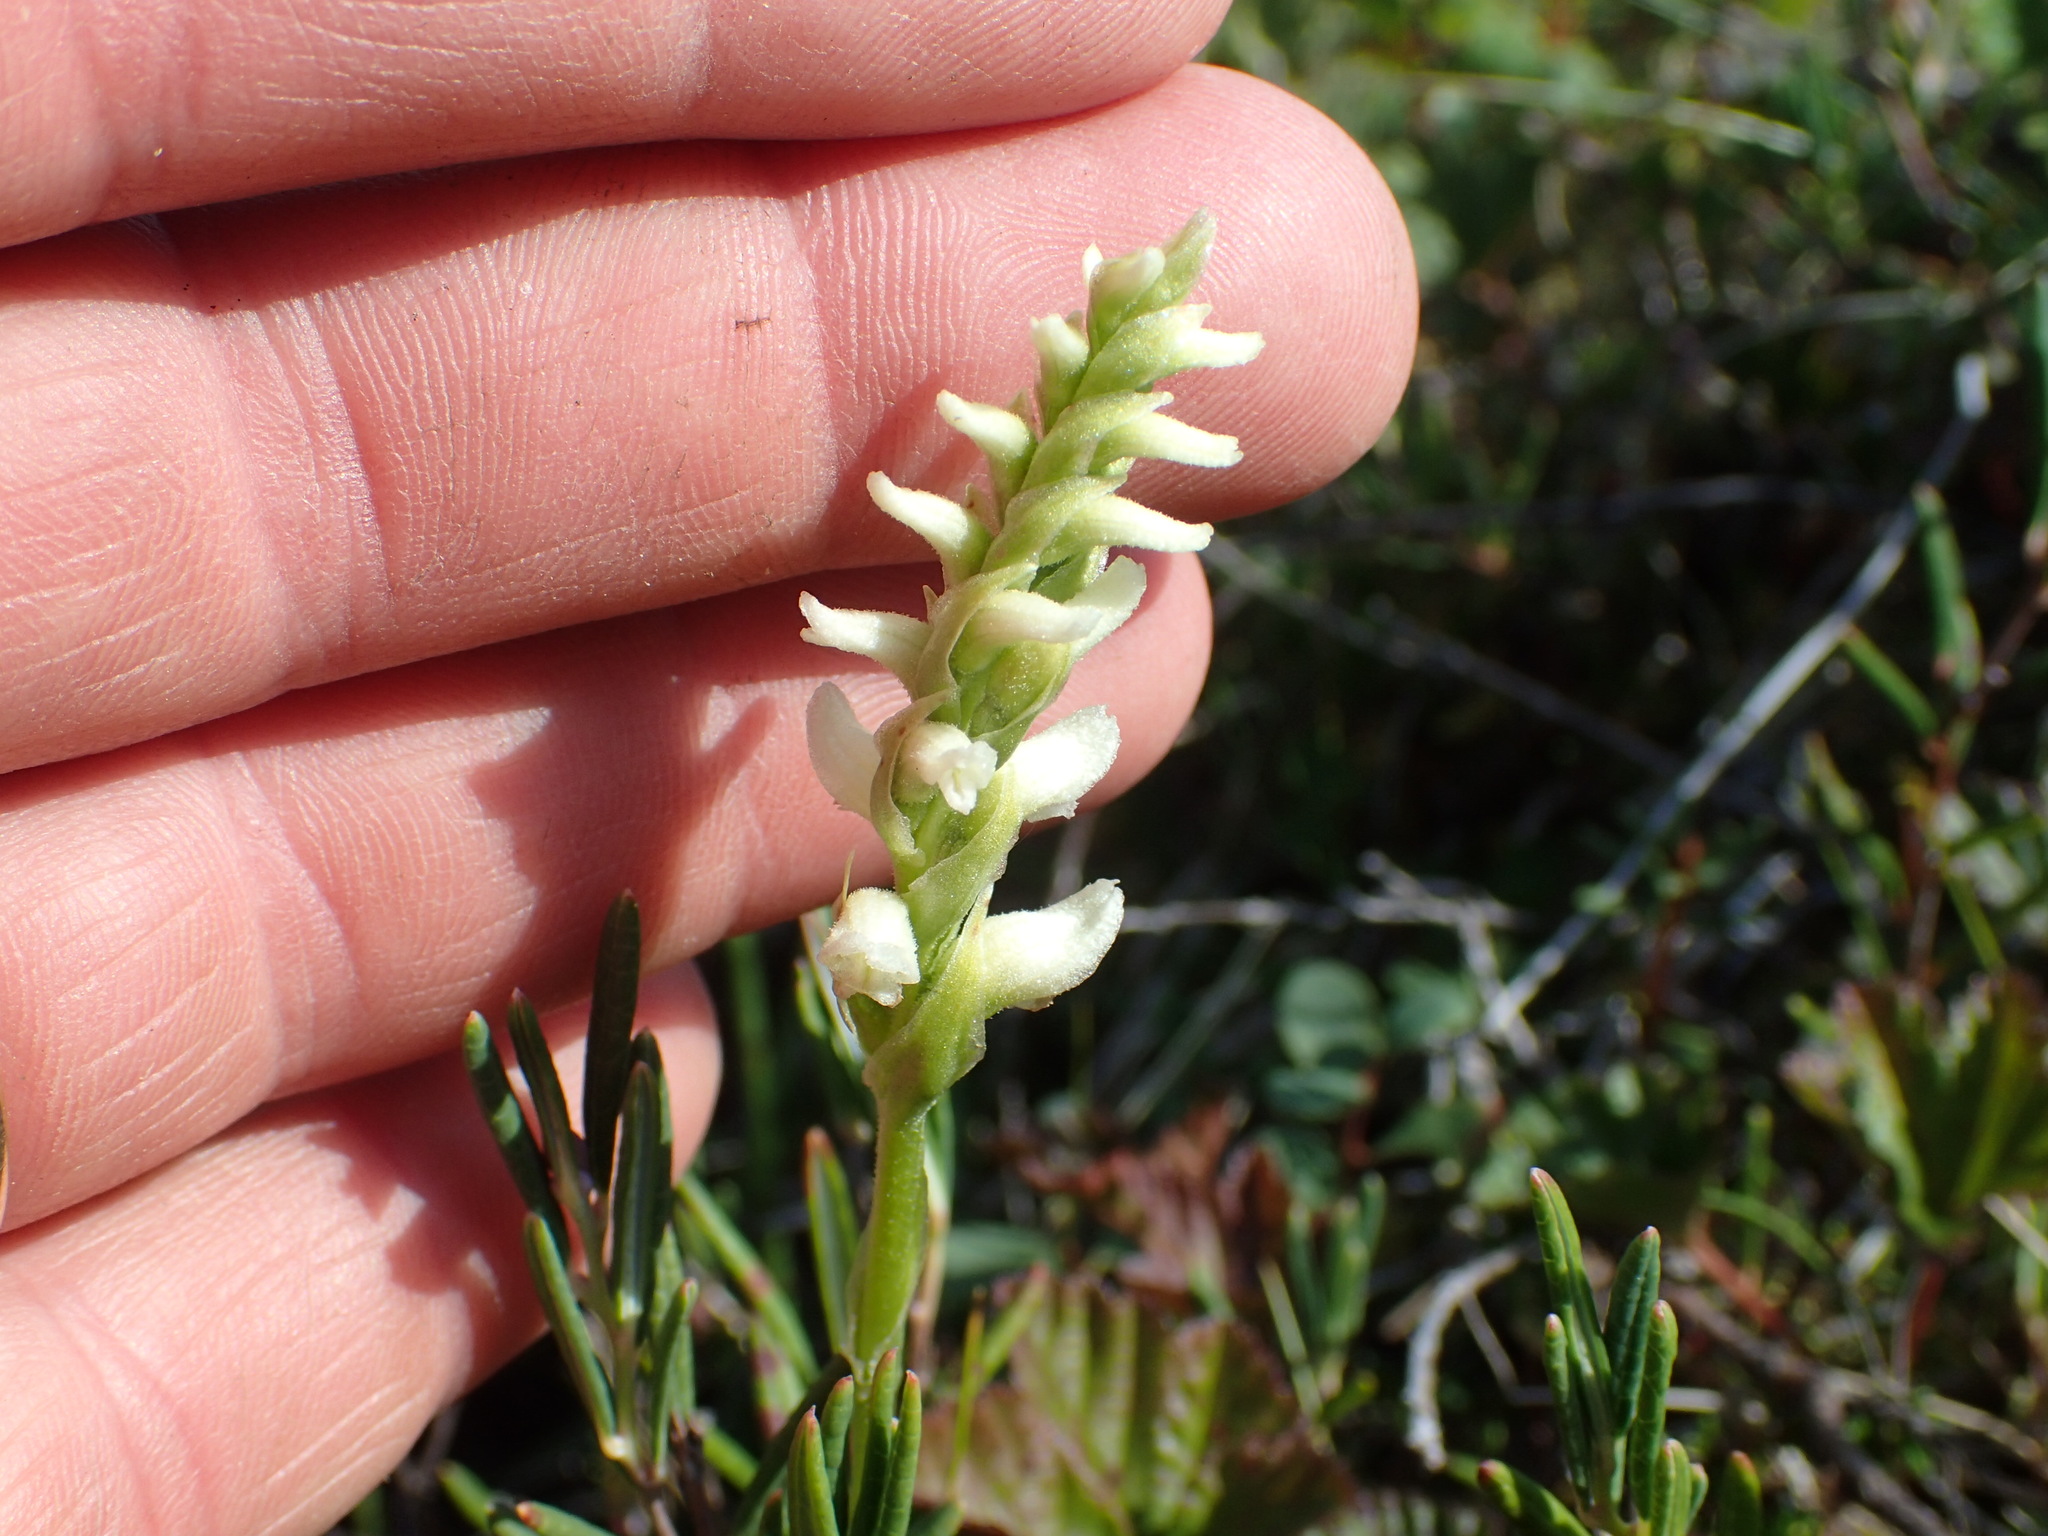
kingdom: Plantae
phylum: Tracheophyta
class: Liliopsida
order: Asparagales
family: Orchidaceae
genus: Spiranthes
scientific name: Spiranthes romanzoffiana
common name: Irish lady's-tresses
